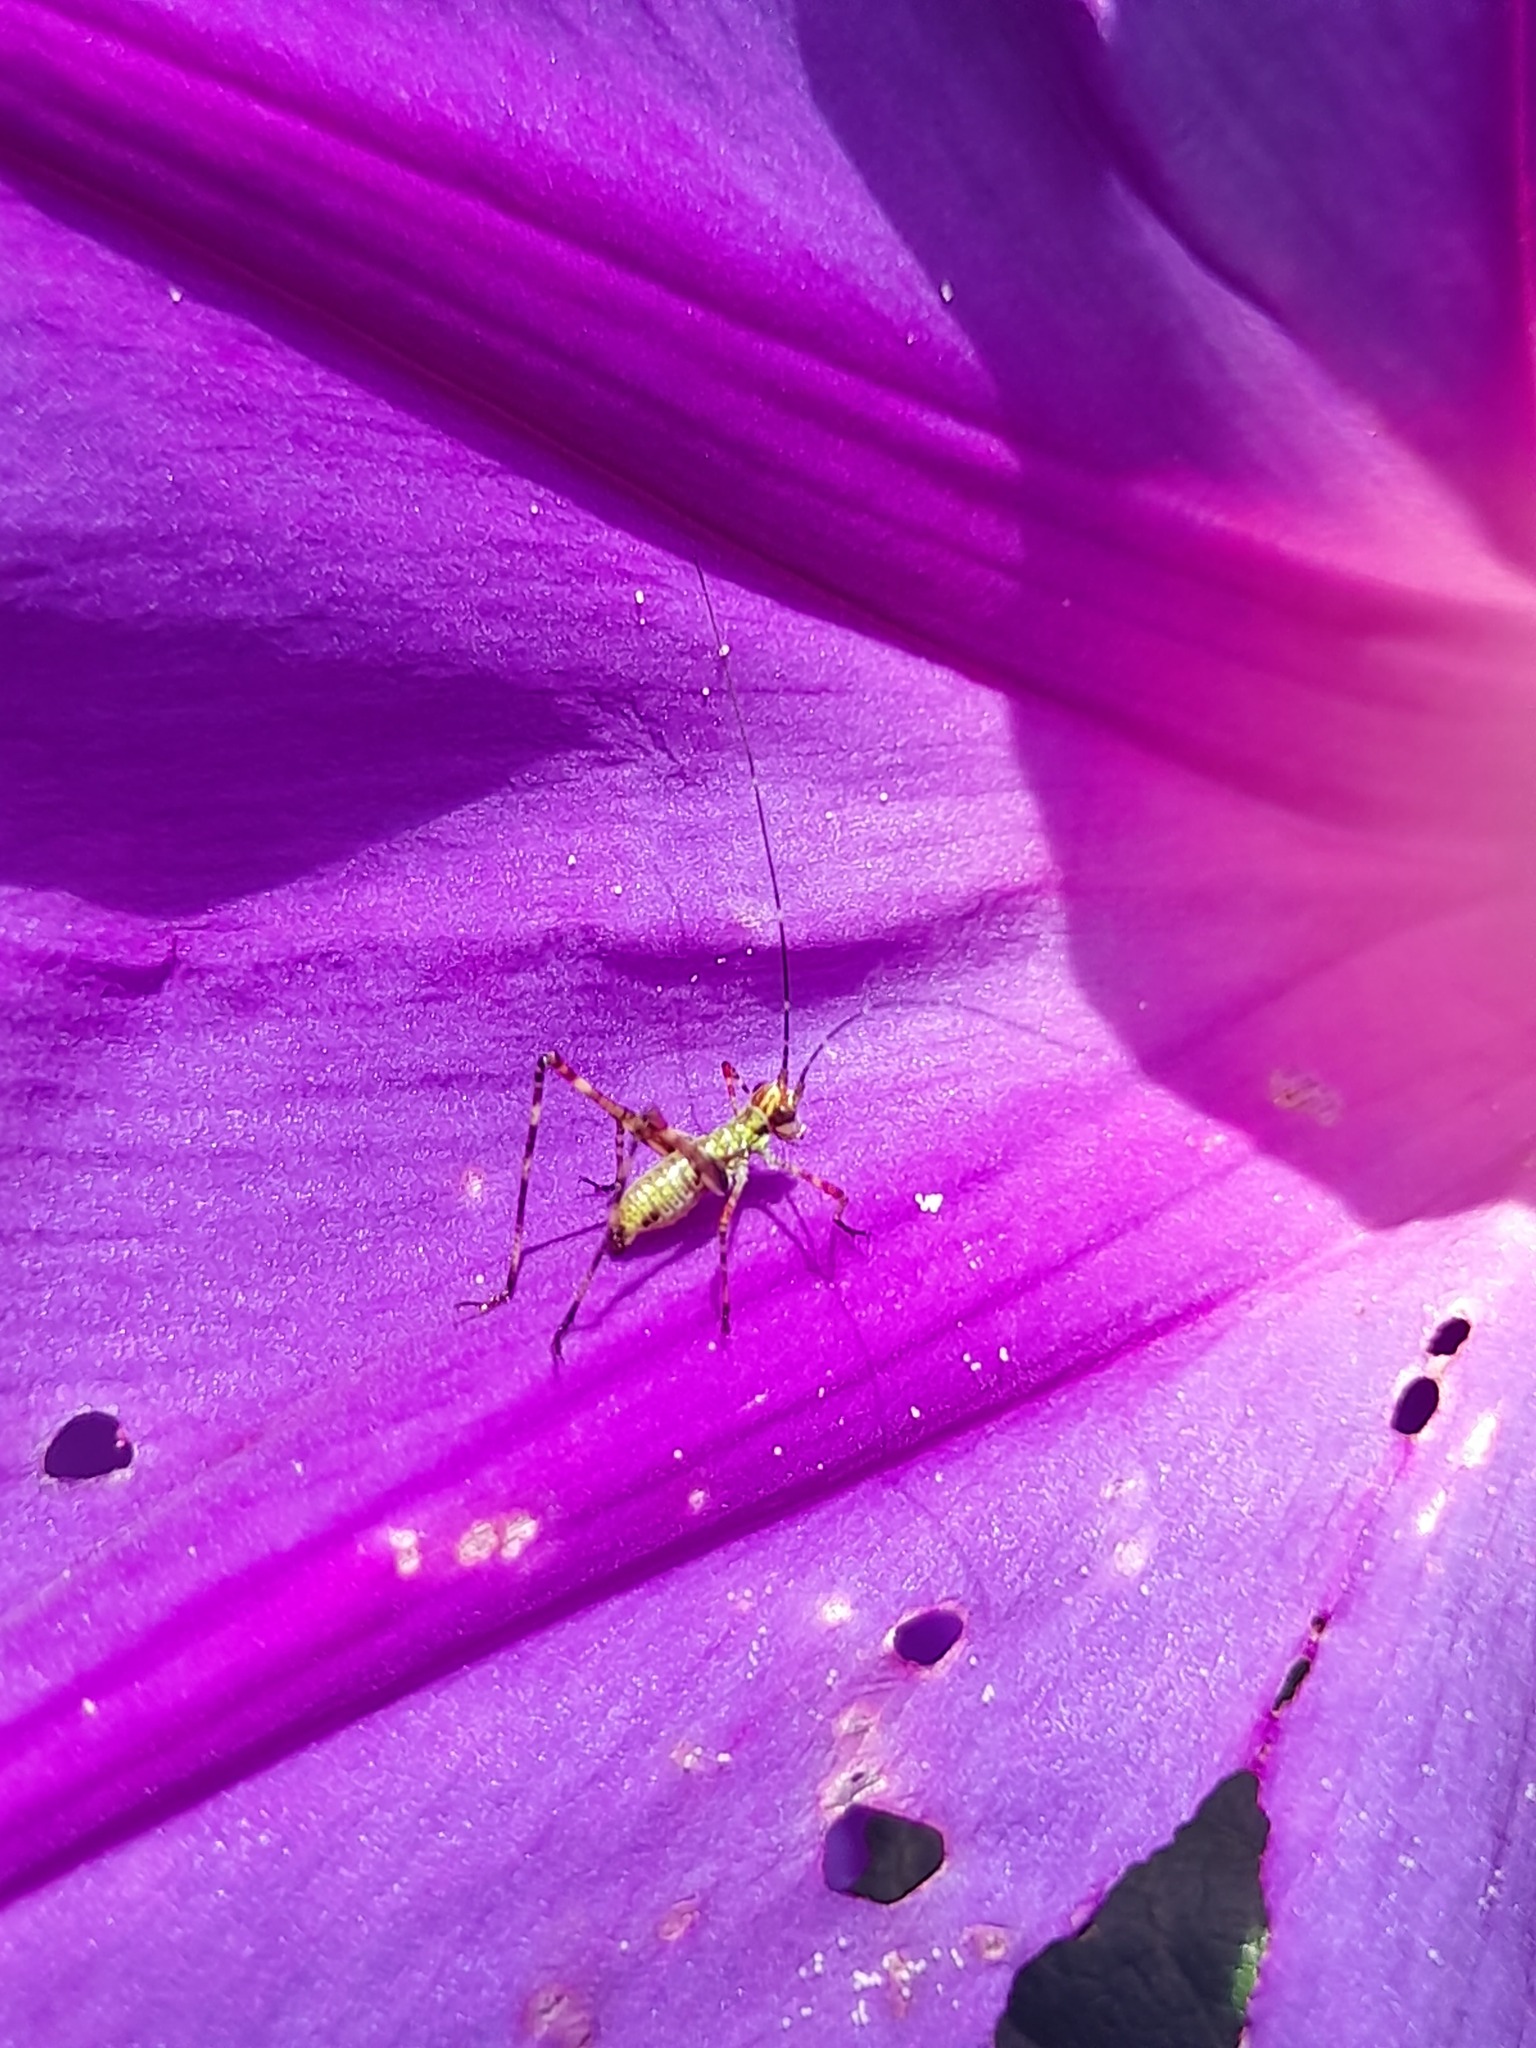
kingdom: Animalia
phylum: Arthropoda
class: Insecta
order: Orthoptera
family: Tettigoniidae
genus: Ligocatinus
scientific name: Ligocatinus spinatus
